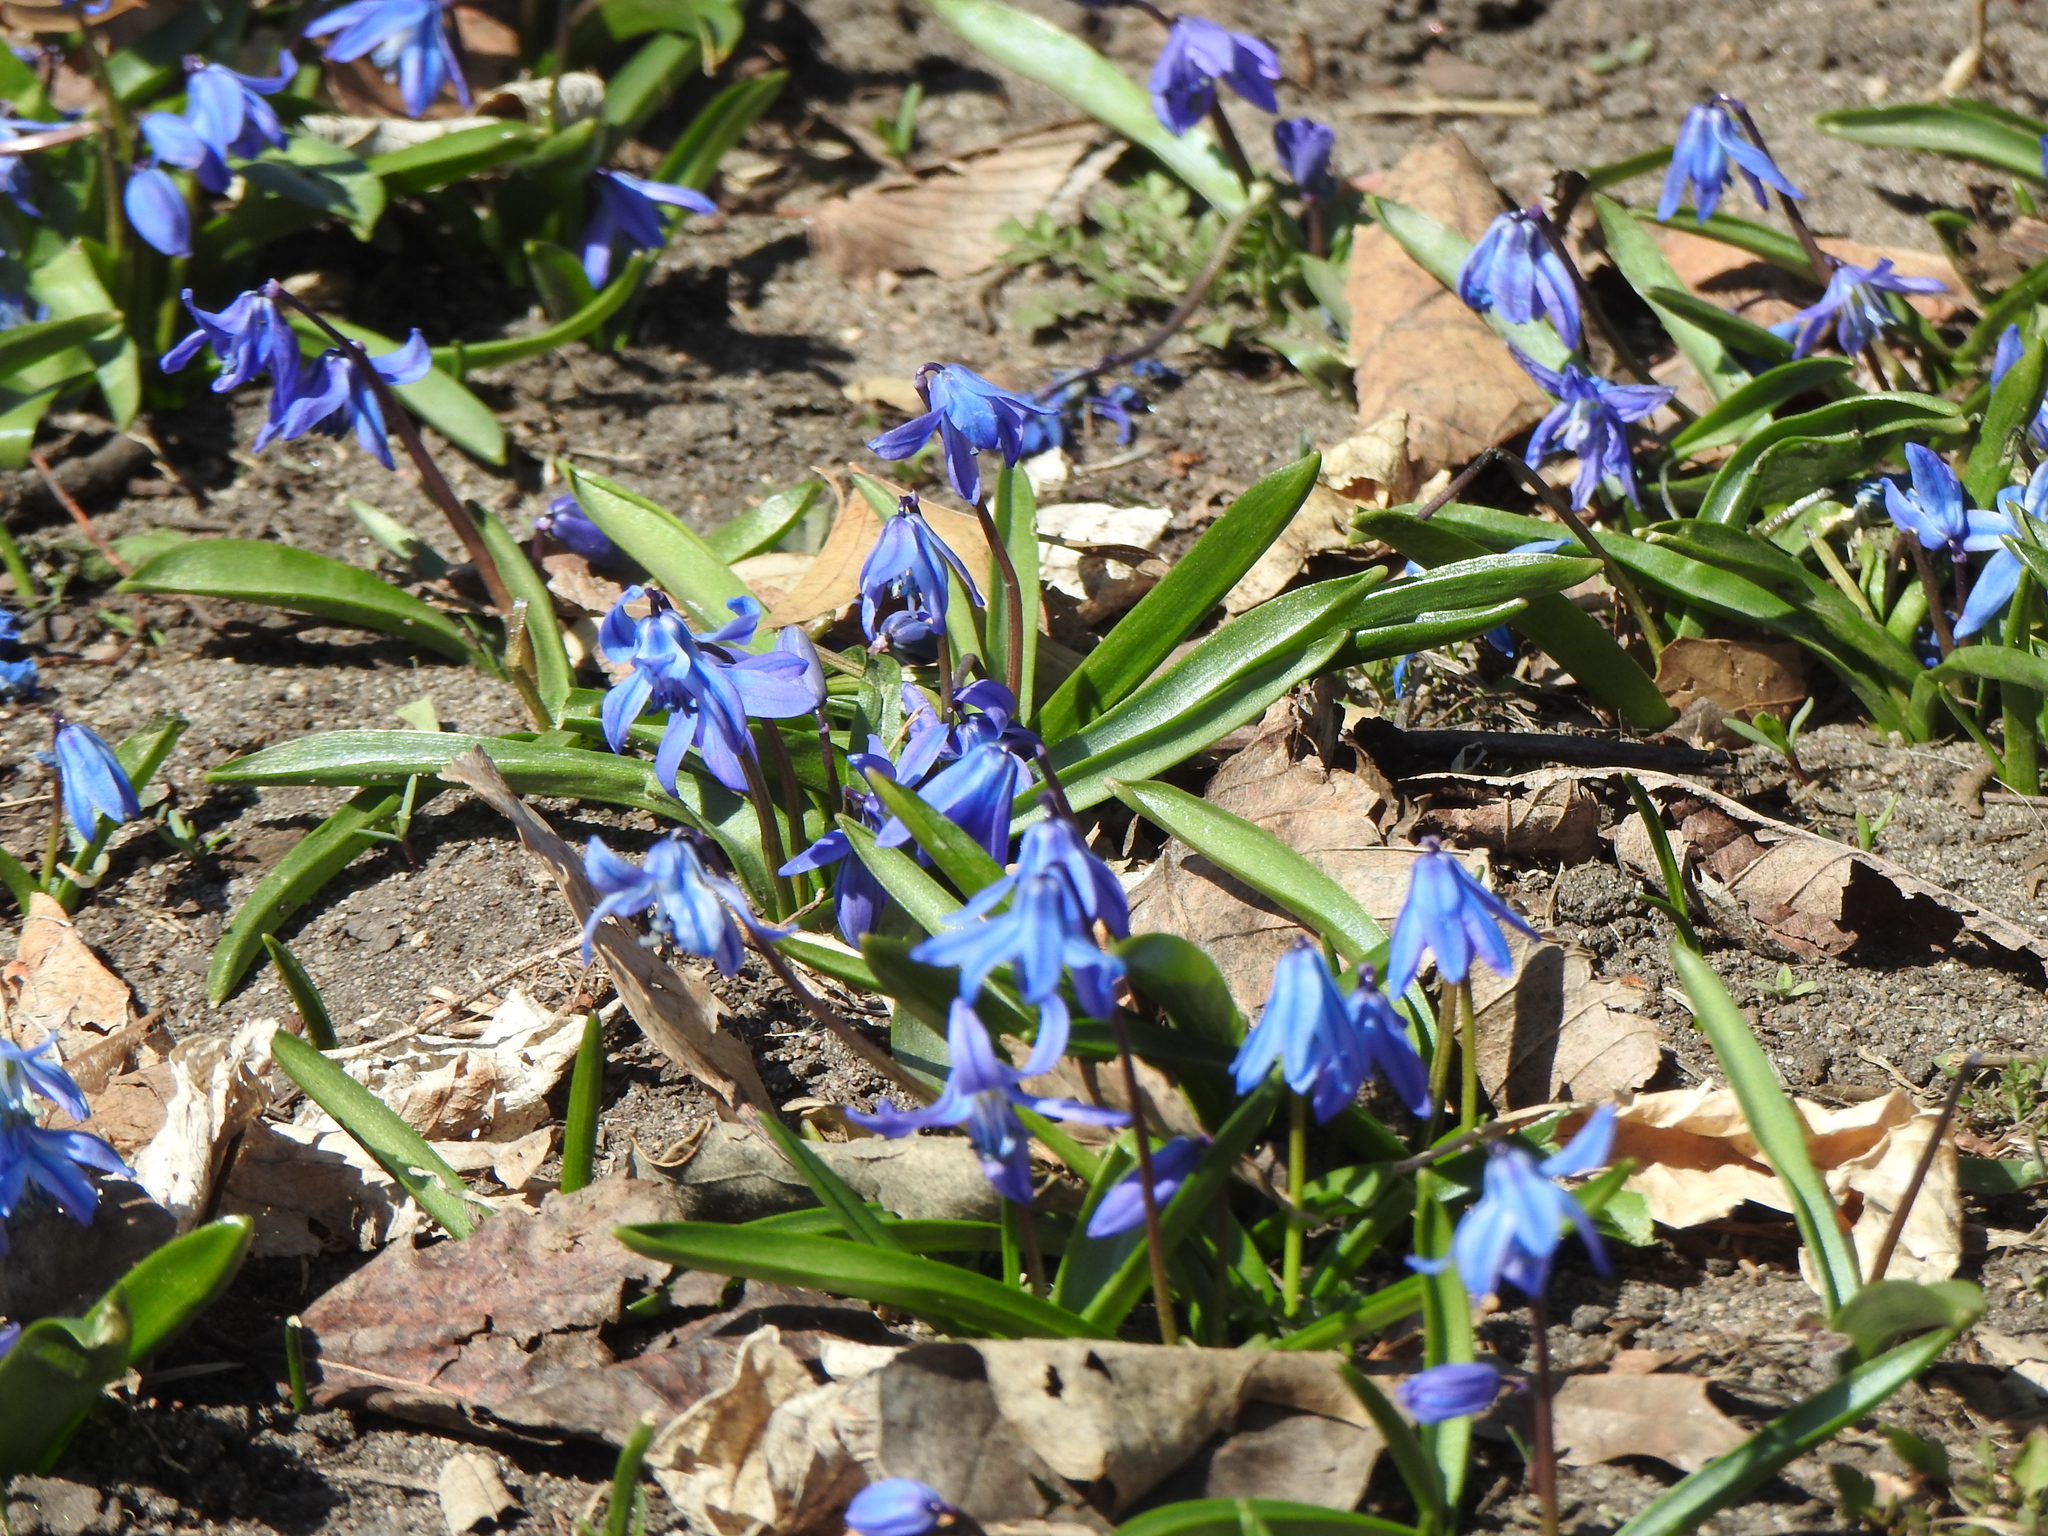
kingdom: Plantae
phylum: Tracheophyta
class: Liliopsida
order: Asparagales
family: Asparagaceae
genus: Scilla
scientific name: Scilla siberica
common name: Siberian squill
